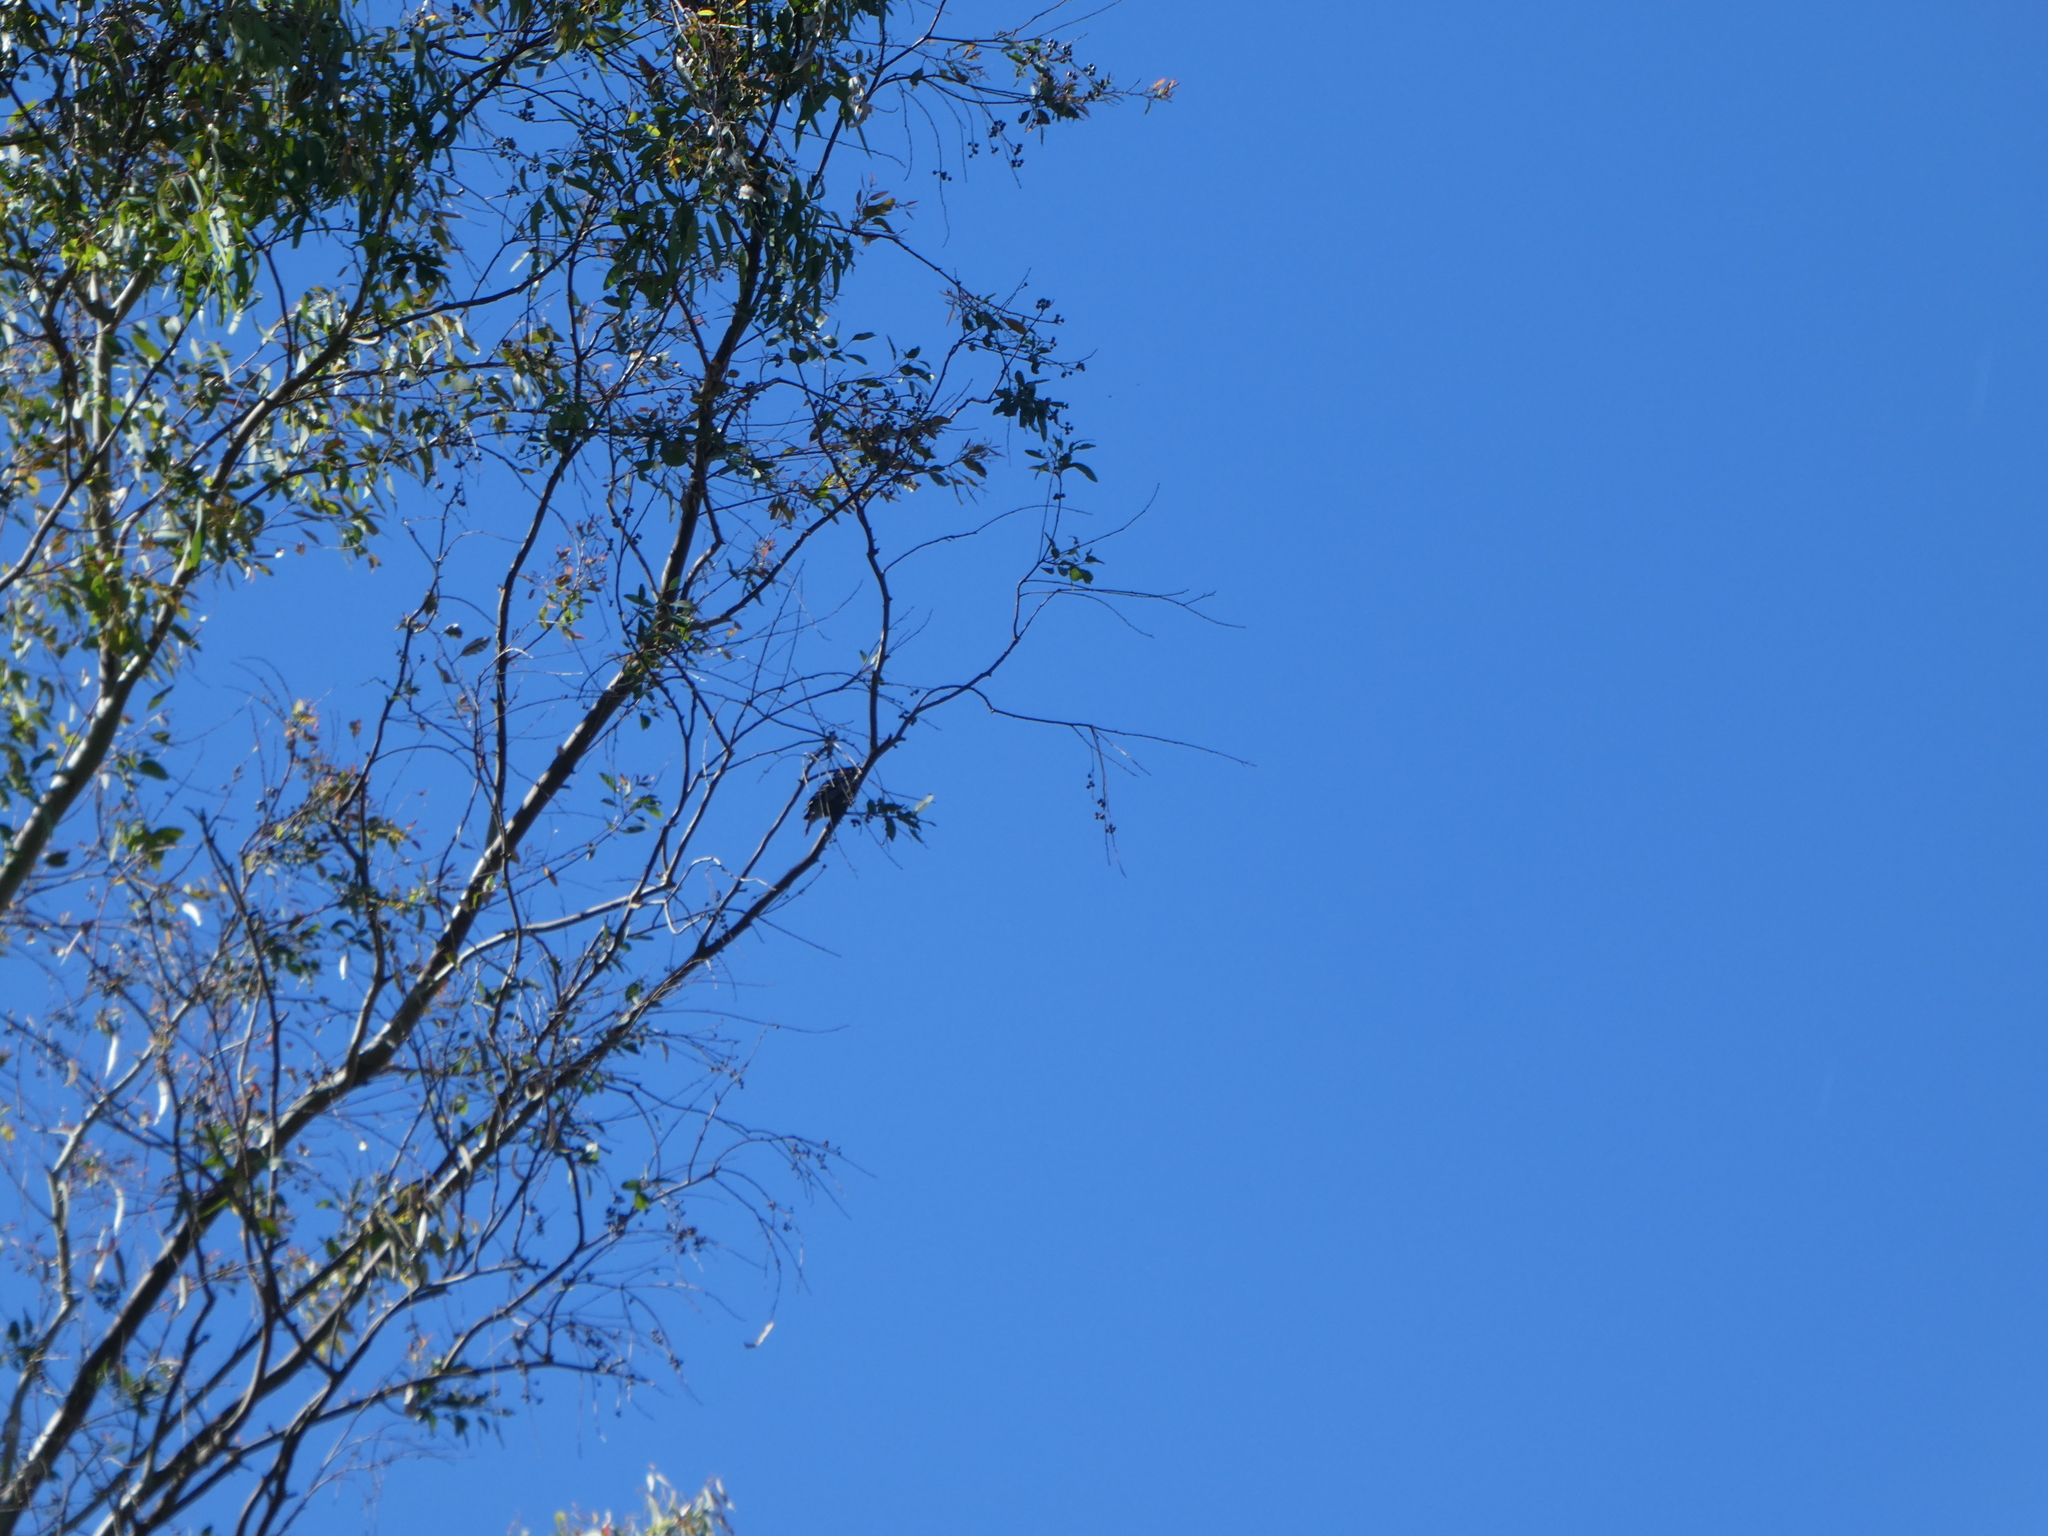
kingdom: Animalia
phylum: Chordata
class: Aves
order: Piciformes
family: Picidae
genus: Dryobates
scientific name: Dryobates
